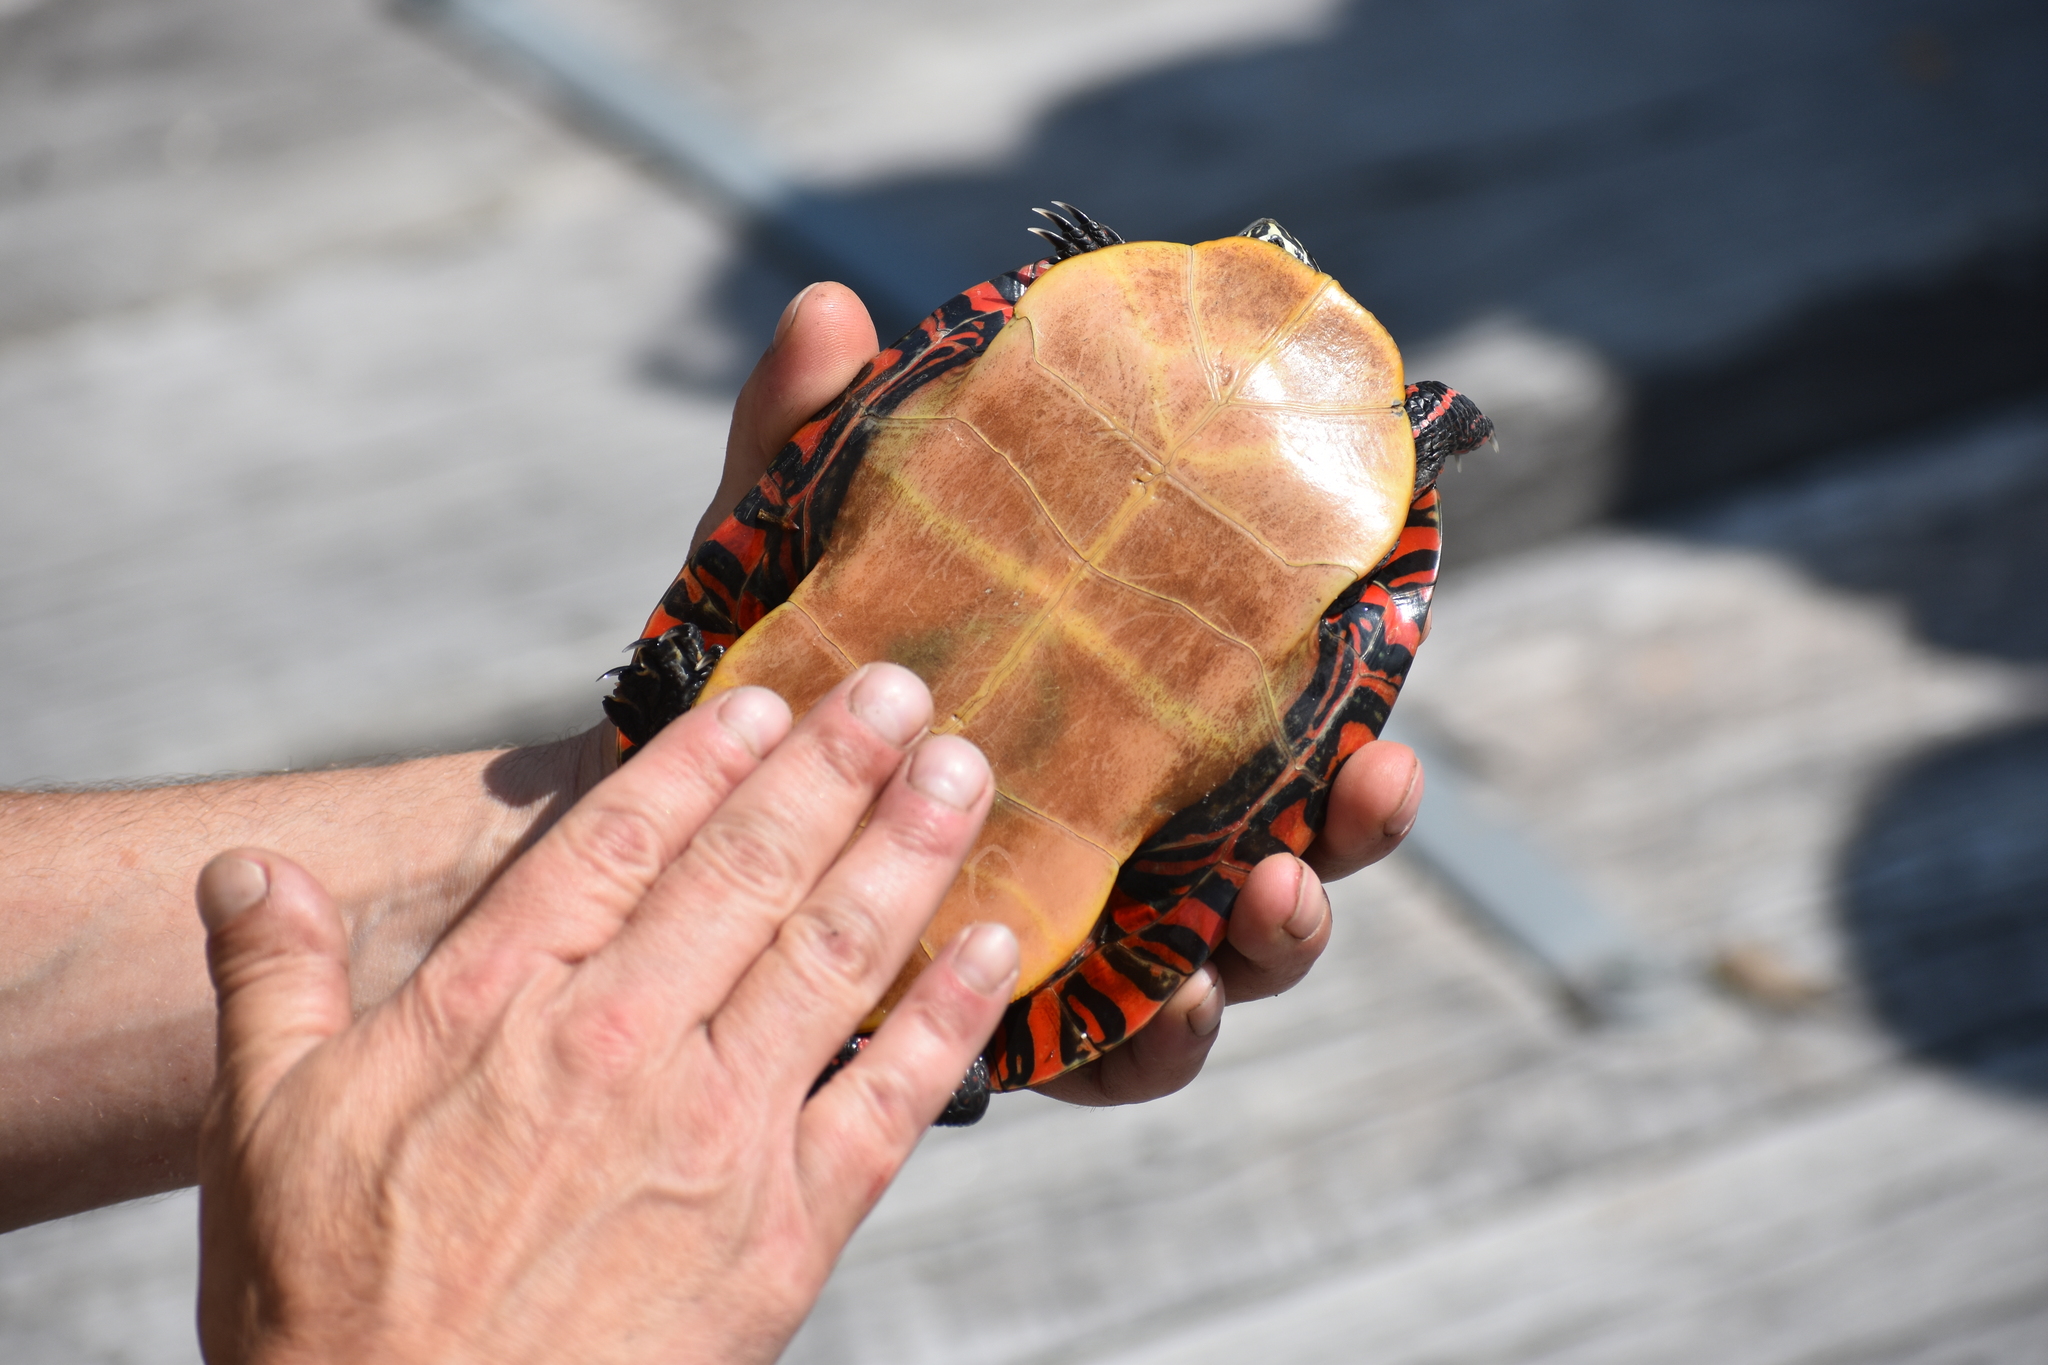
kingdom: Animalia
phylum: Chordata
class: Testudines
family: Emydidae
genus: Chrysemys
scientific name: Chrysemys picta
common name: Painted turtle
